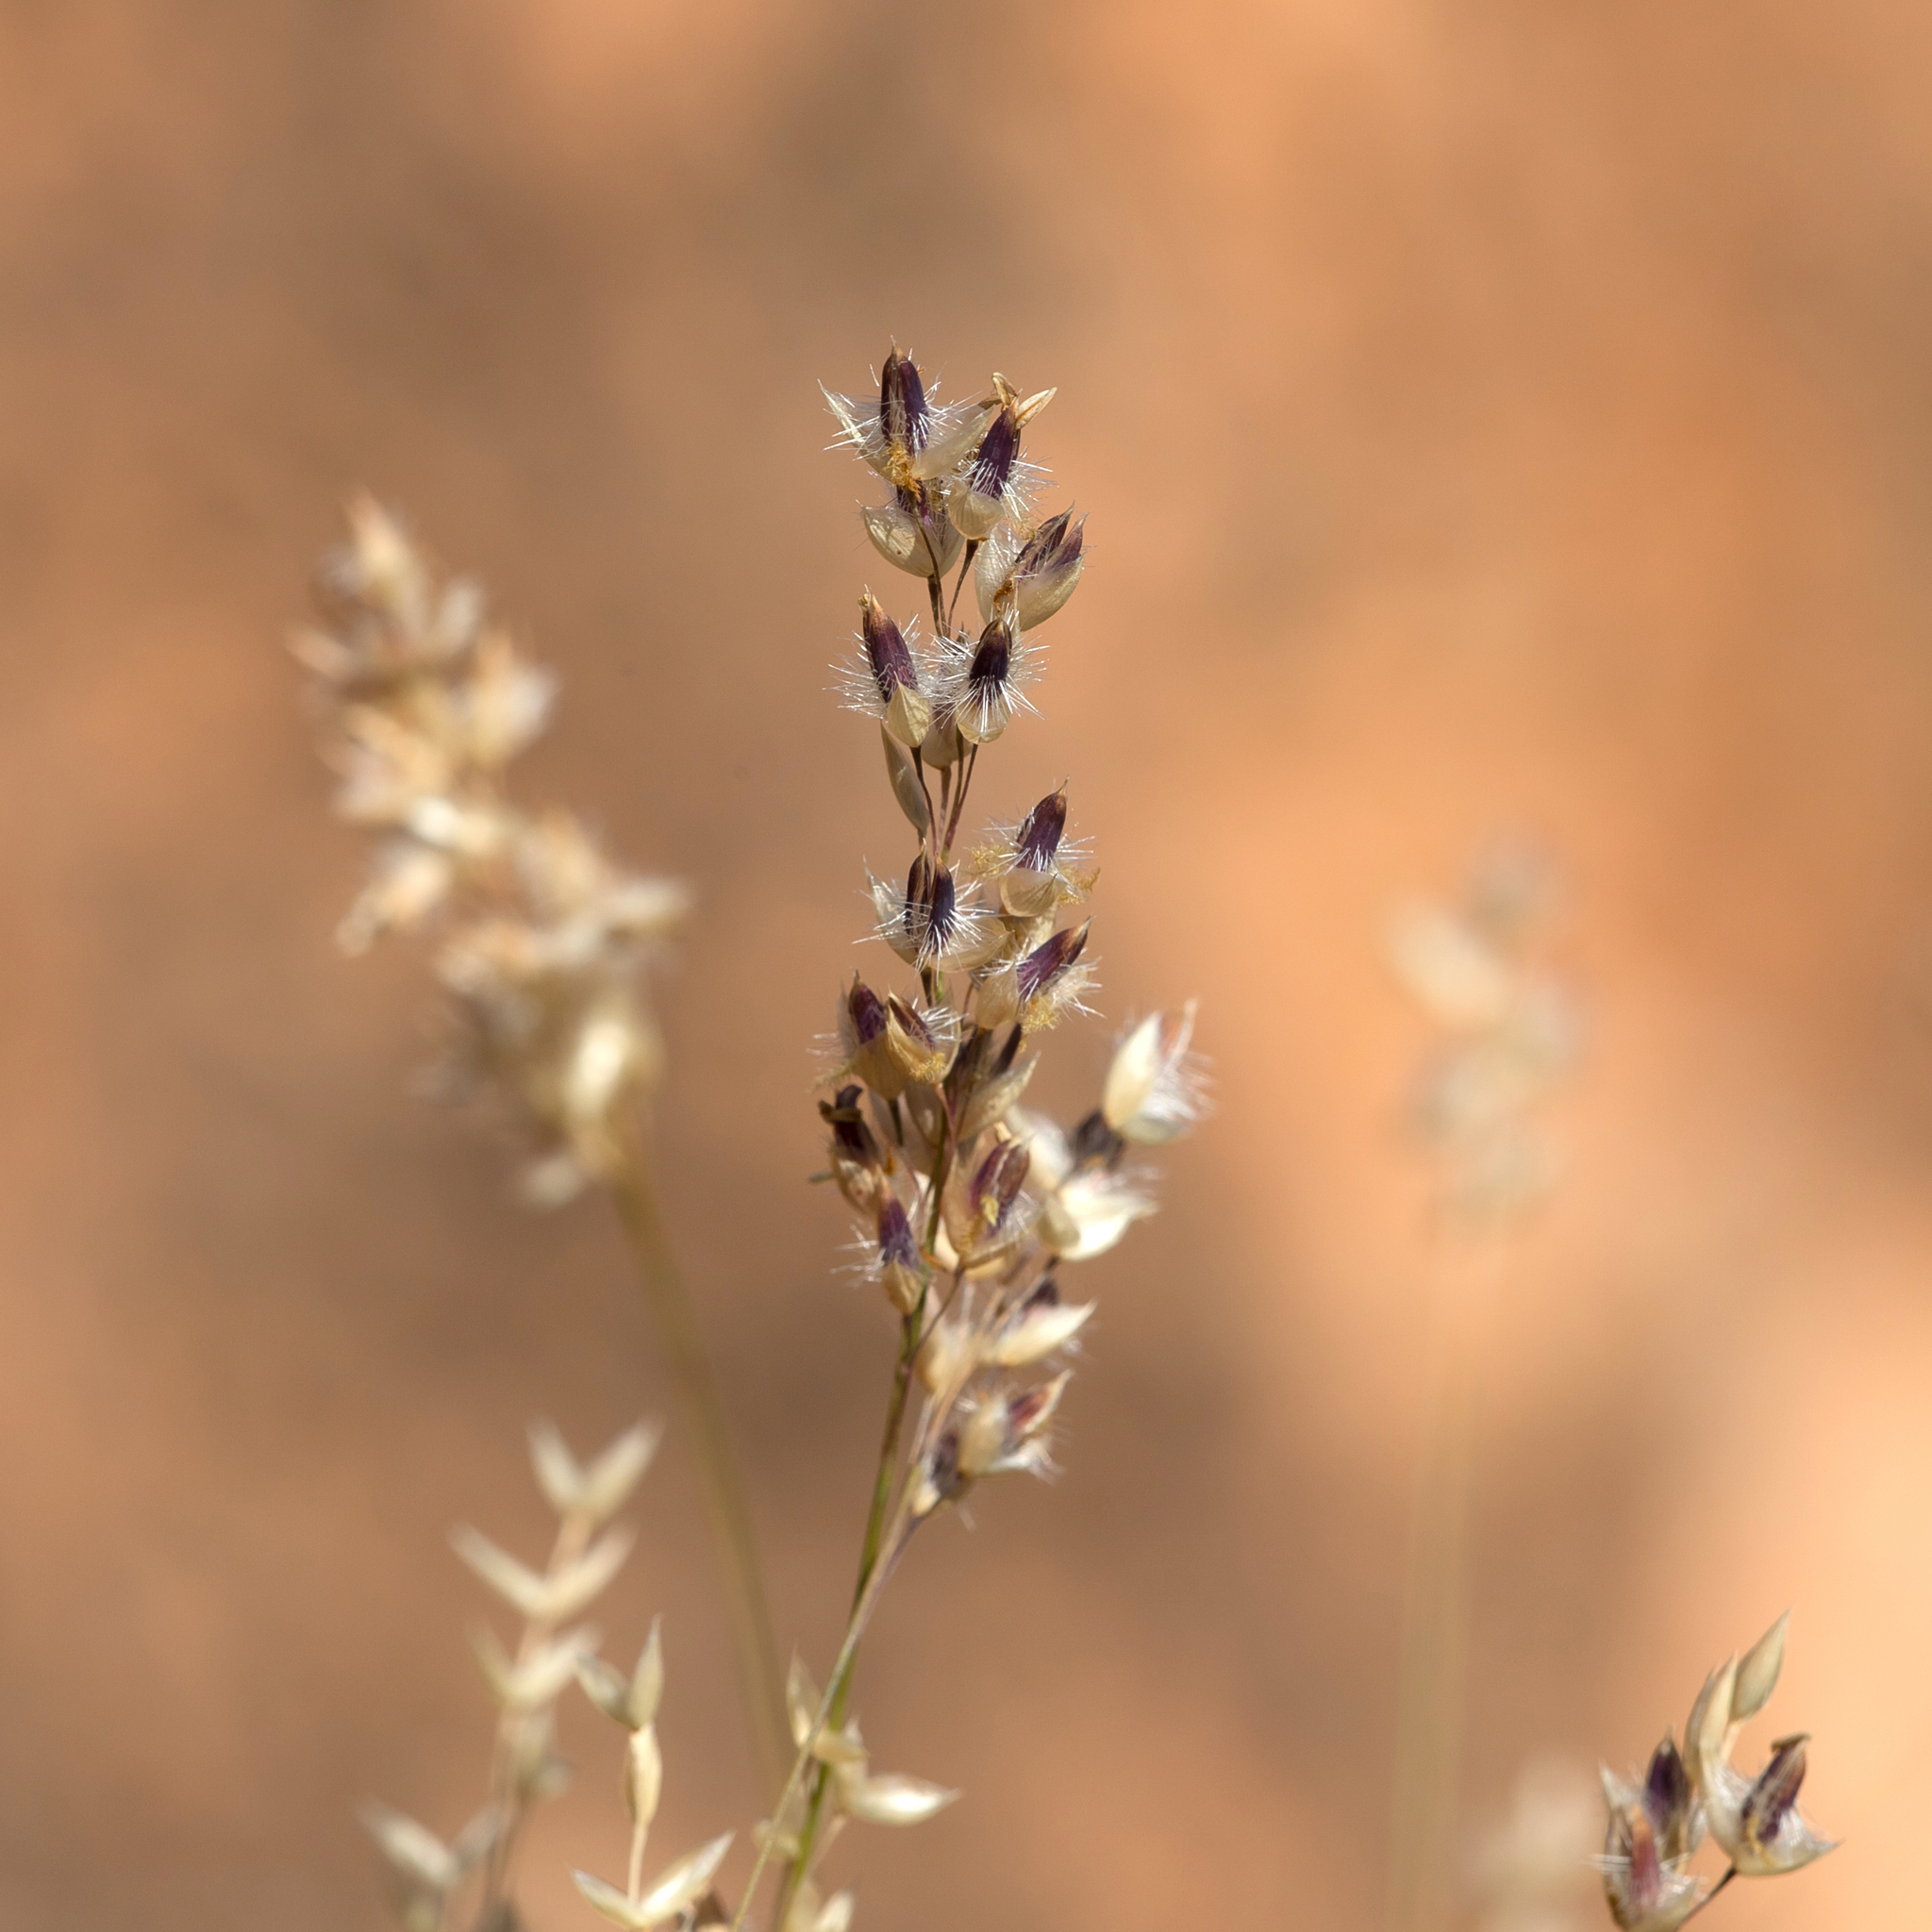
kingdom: Plantae
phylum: Tracheophyta
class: Liliopsida
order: Poales
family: Poaceae
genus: Eriachne
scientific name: Eriachne mucronata
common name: Mountain wanderrie grass
